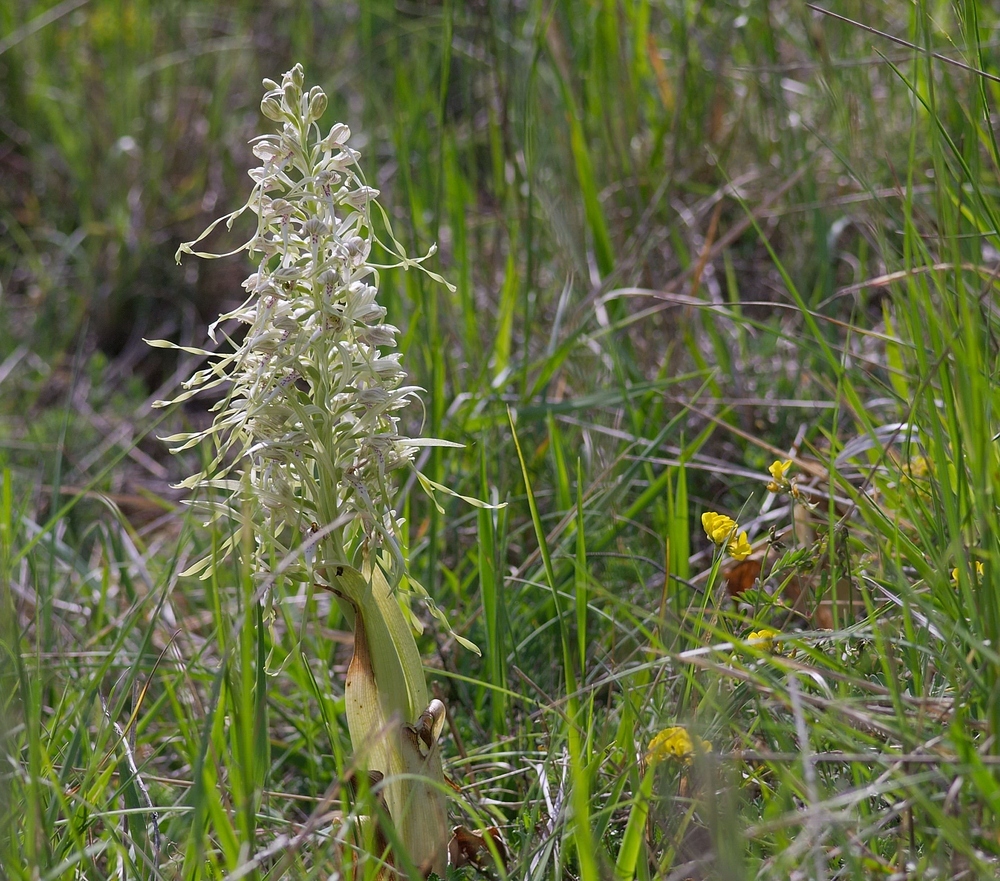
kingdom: Plantae
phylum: Tracheophyta
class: Liliopsida
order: Asparagales
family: Orchidaceae
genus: Himantoglossum
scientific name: Himantoglossum hircinum
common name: Lizard orchid
